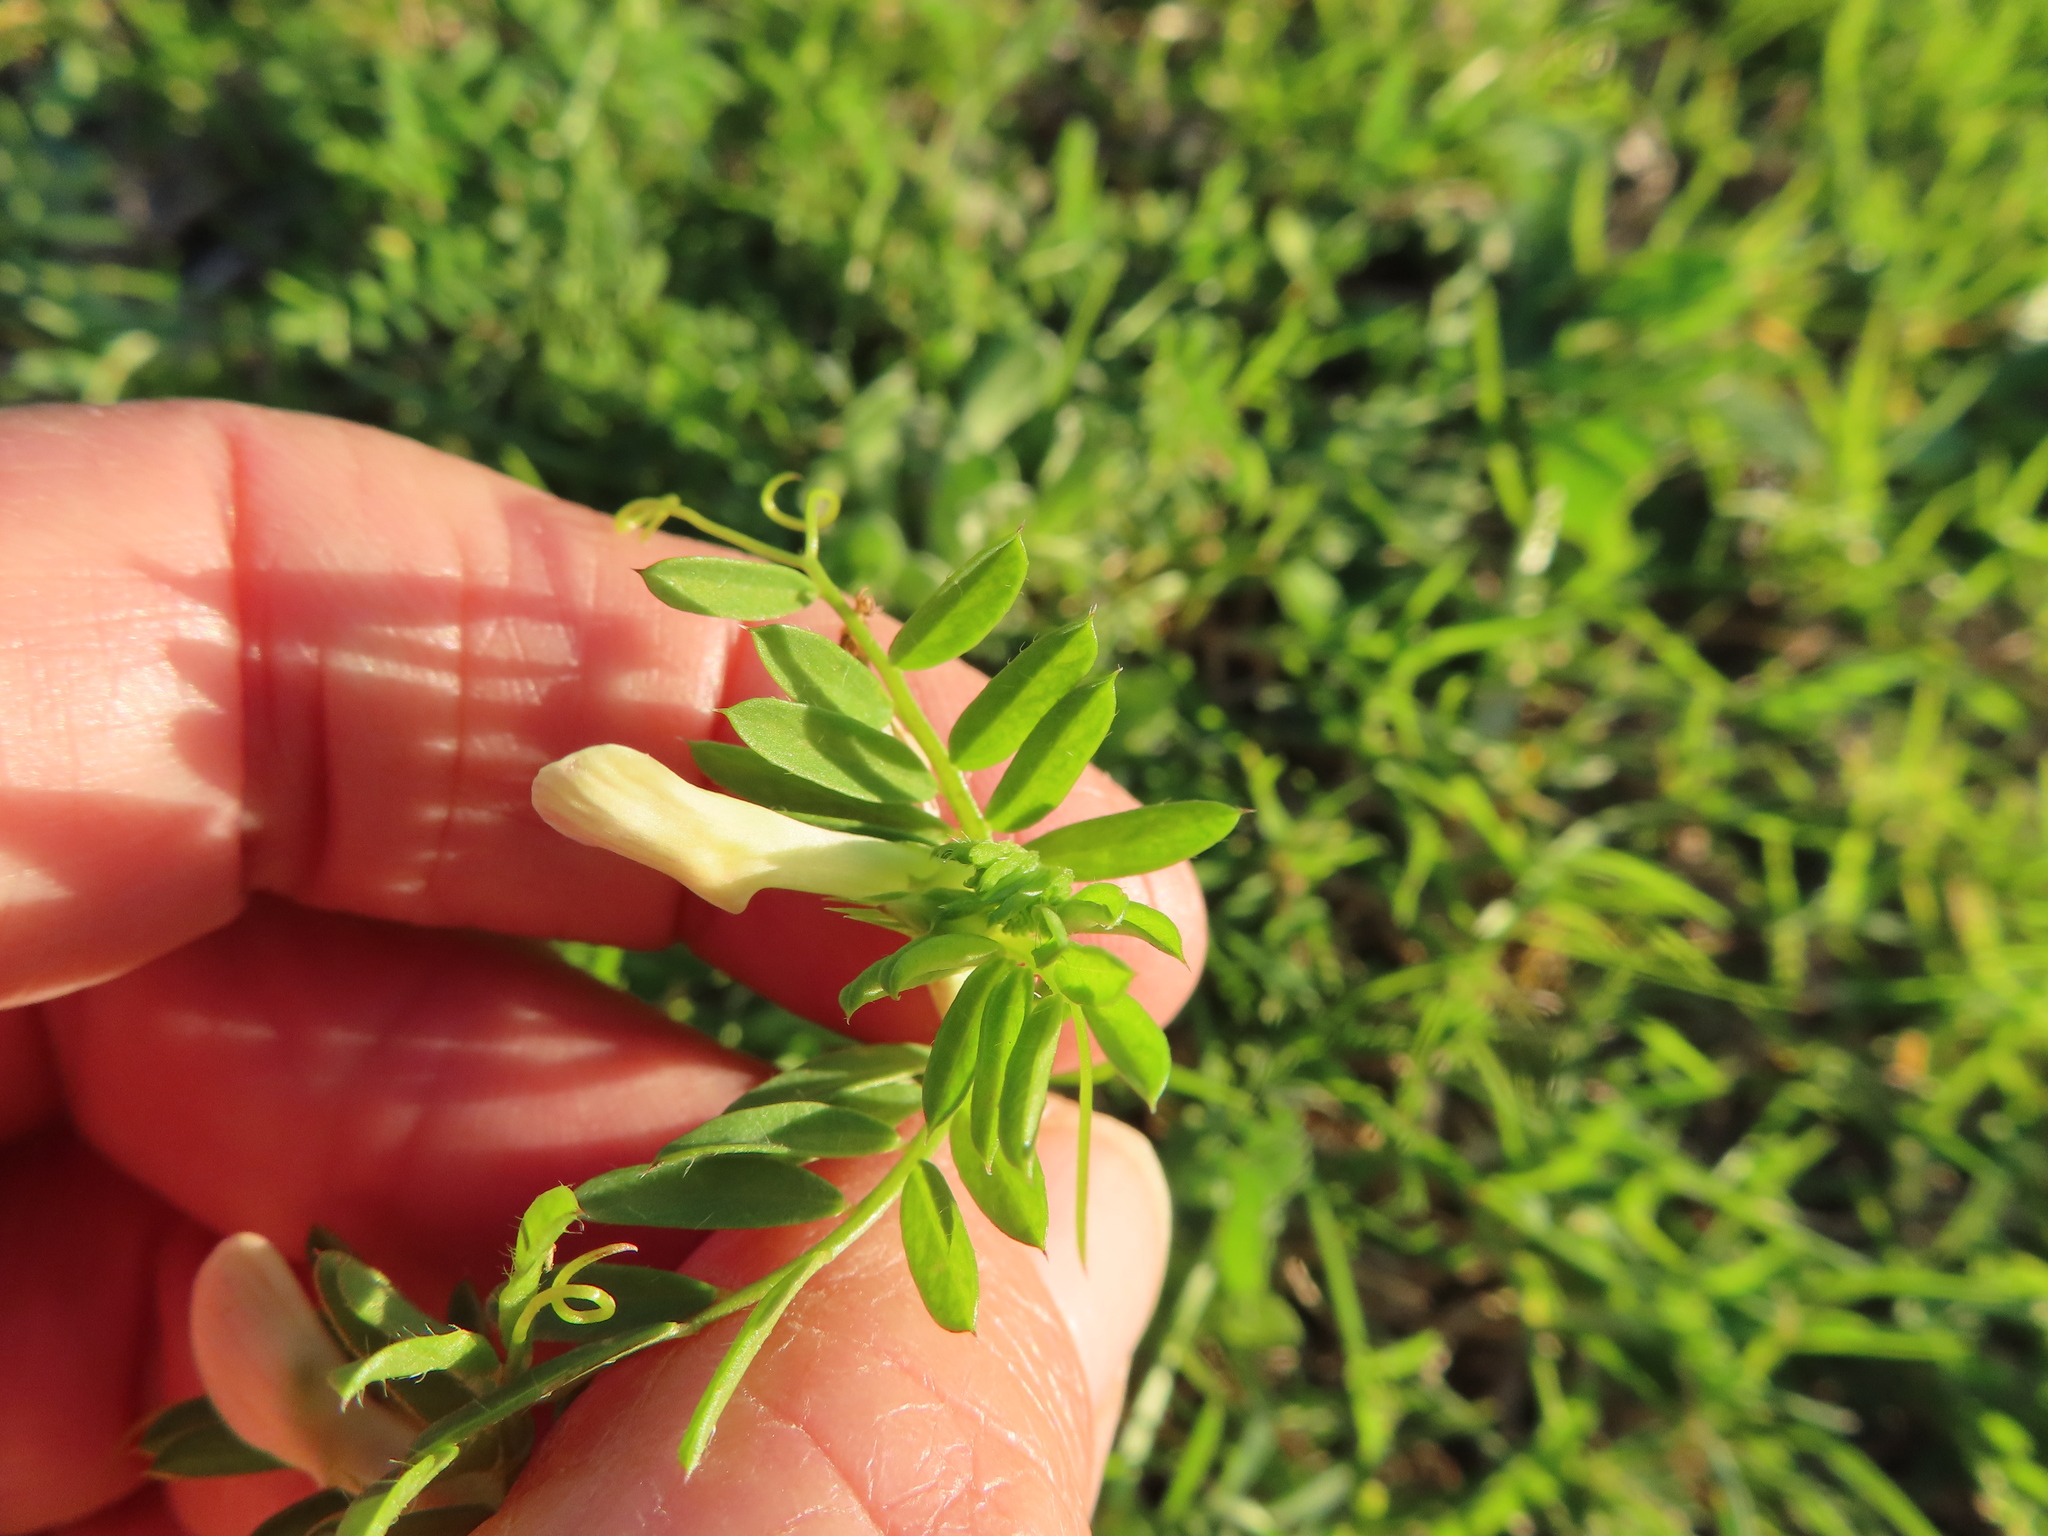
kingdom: Plantae
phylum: Tracheophyta
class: Magnoliopsida
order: Fabales
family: Fabaceae
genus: Vicia
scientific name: Vicia lutea
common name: Smooth yellow vetch
